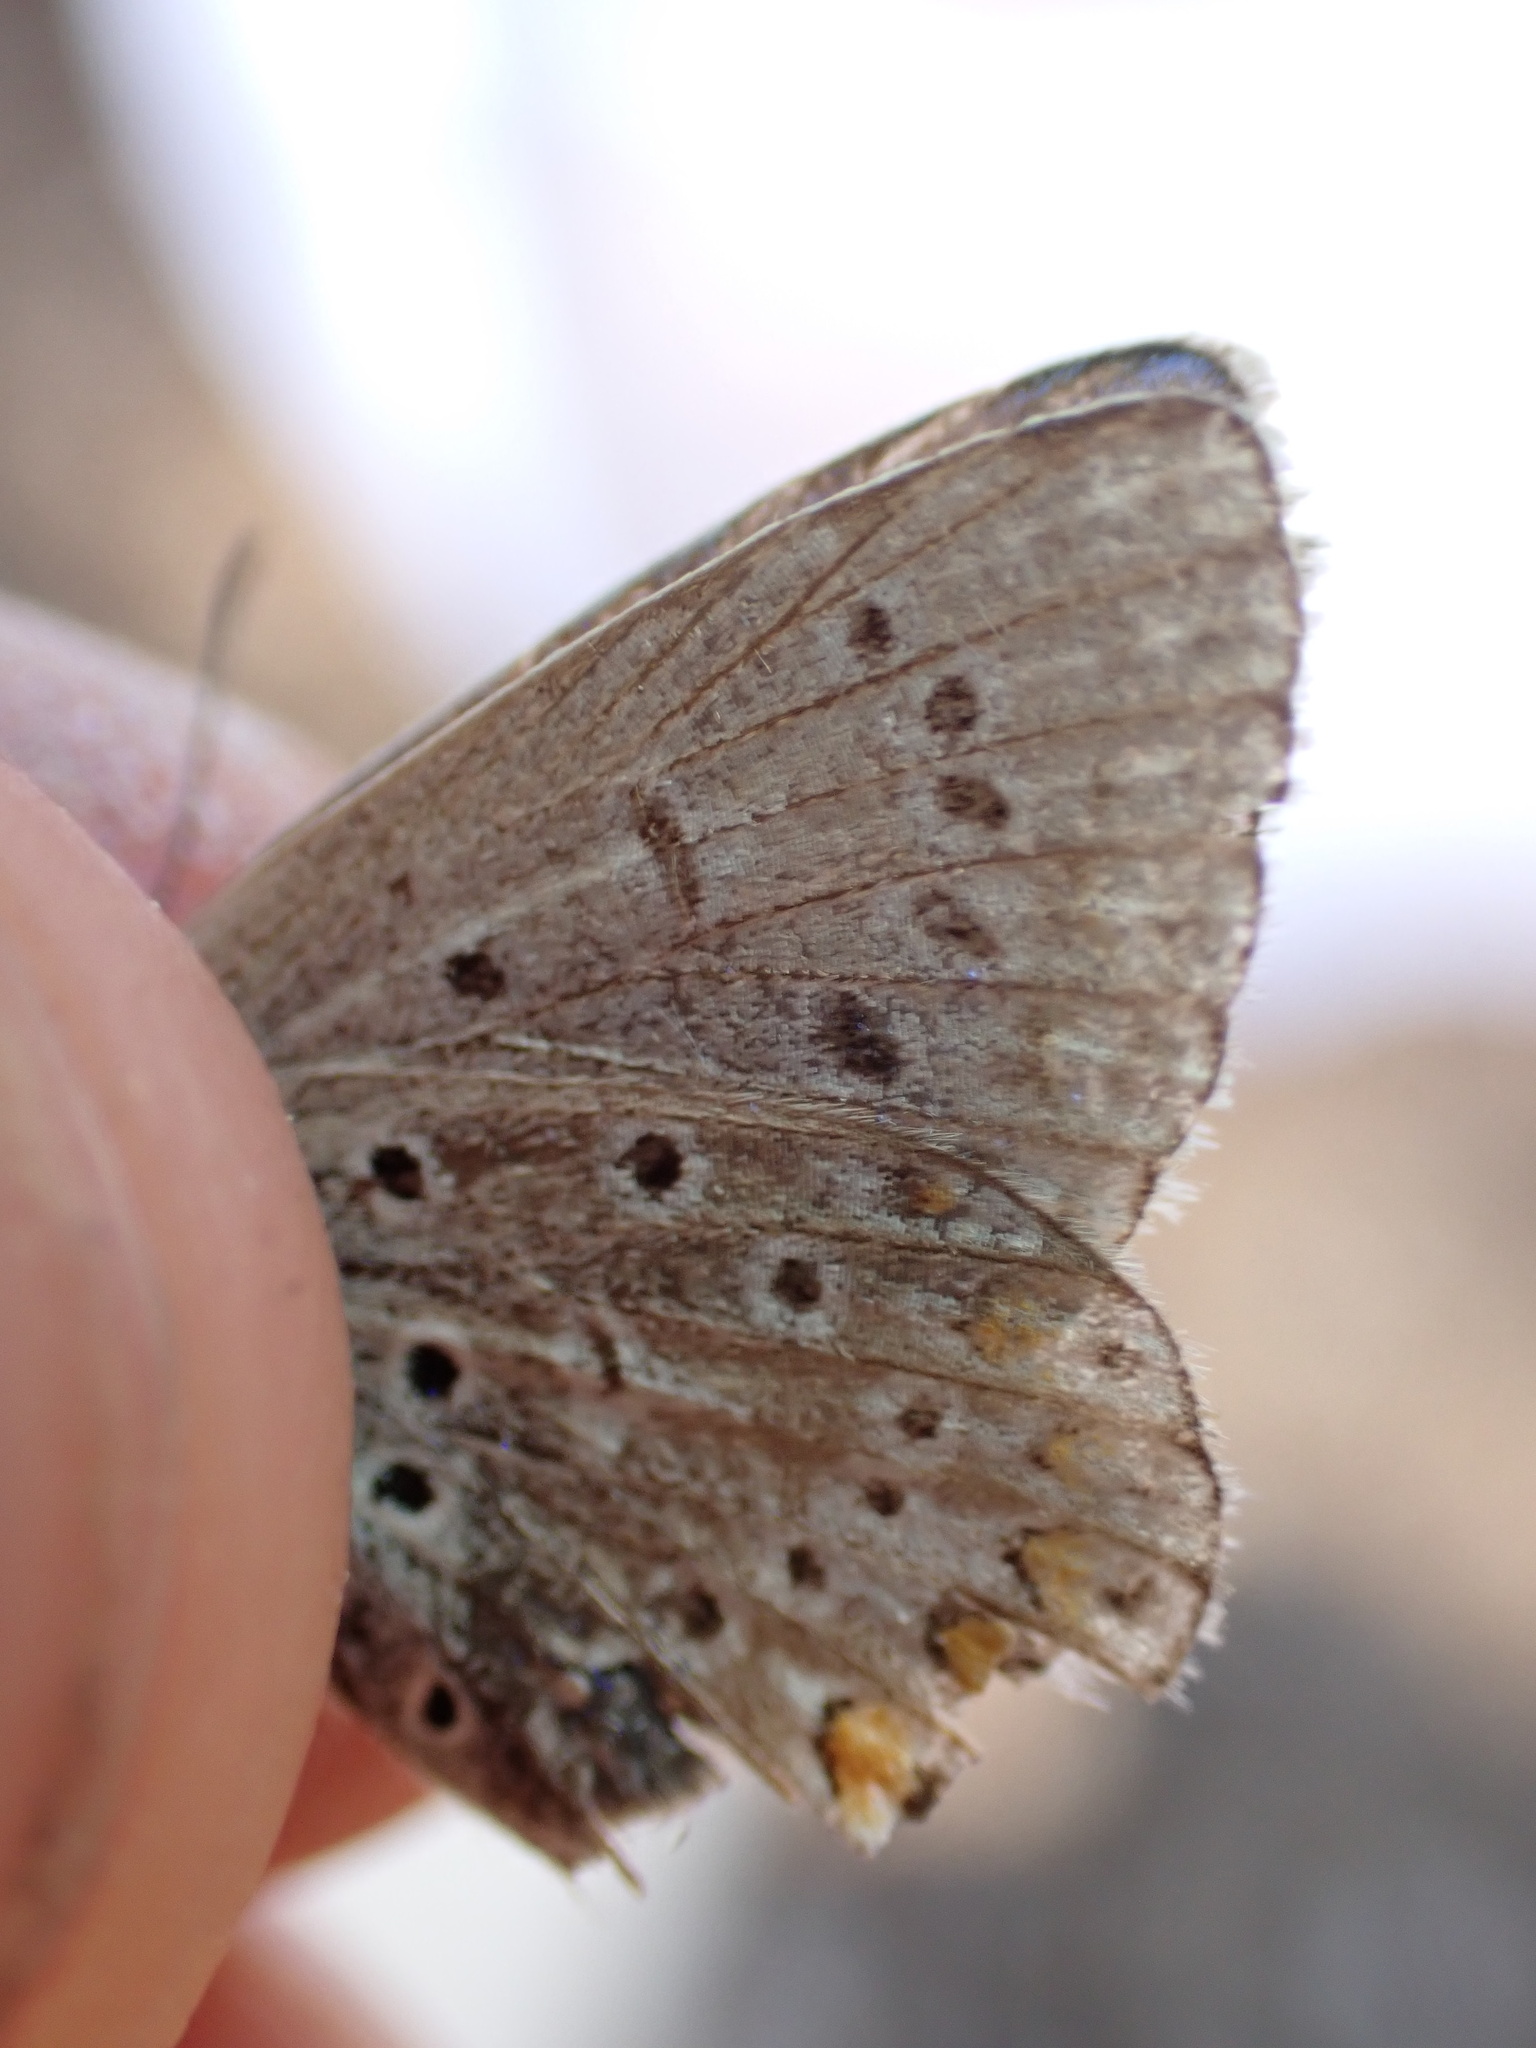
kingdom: Animalia
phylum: Arthropoda
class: Insecta
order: Lepidoptera
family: Lycaenidae
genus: Polyommatus
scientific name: Polyommatus icarus
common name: Common blue
